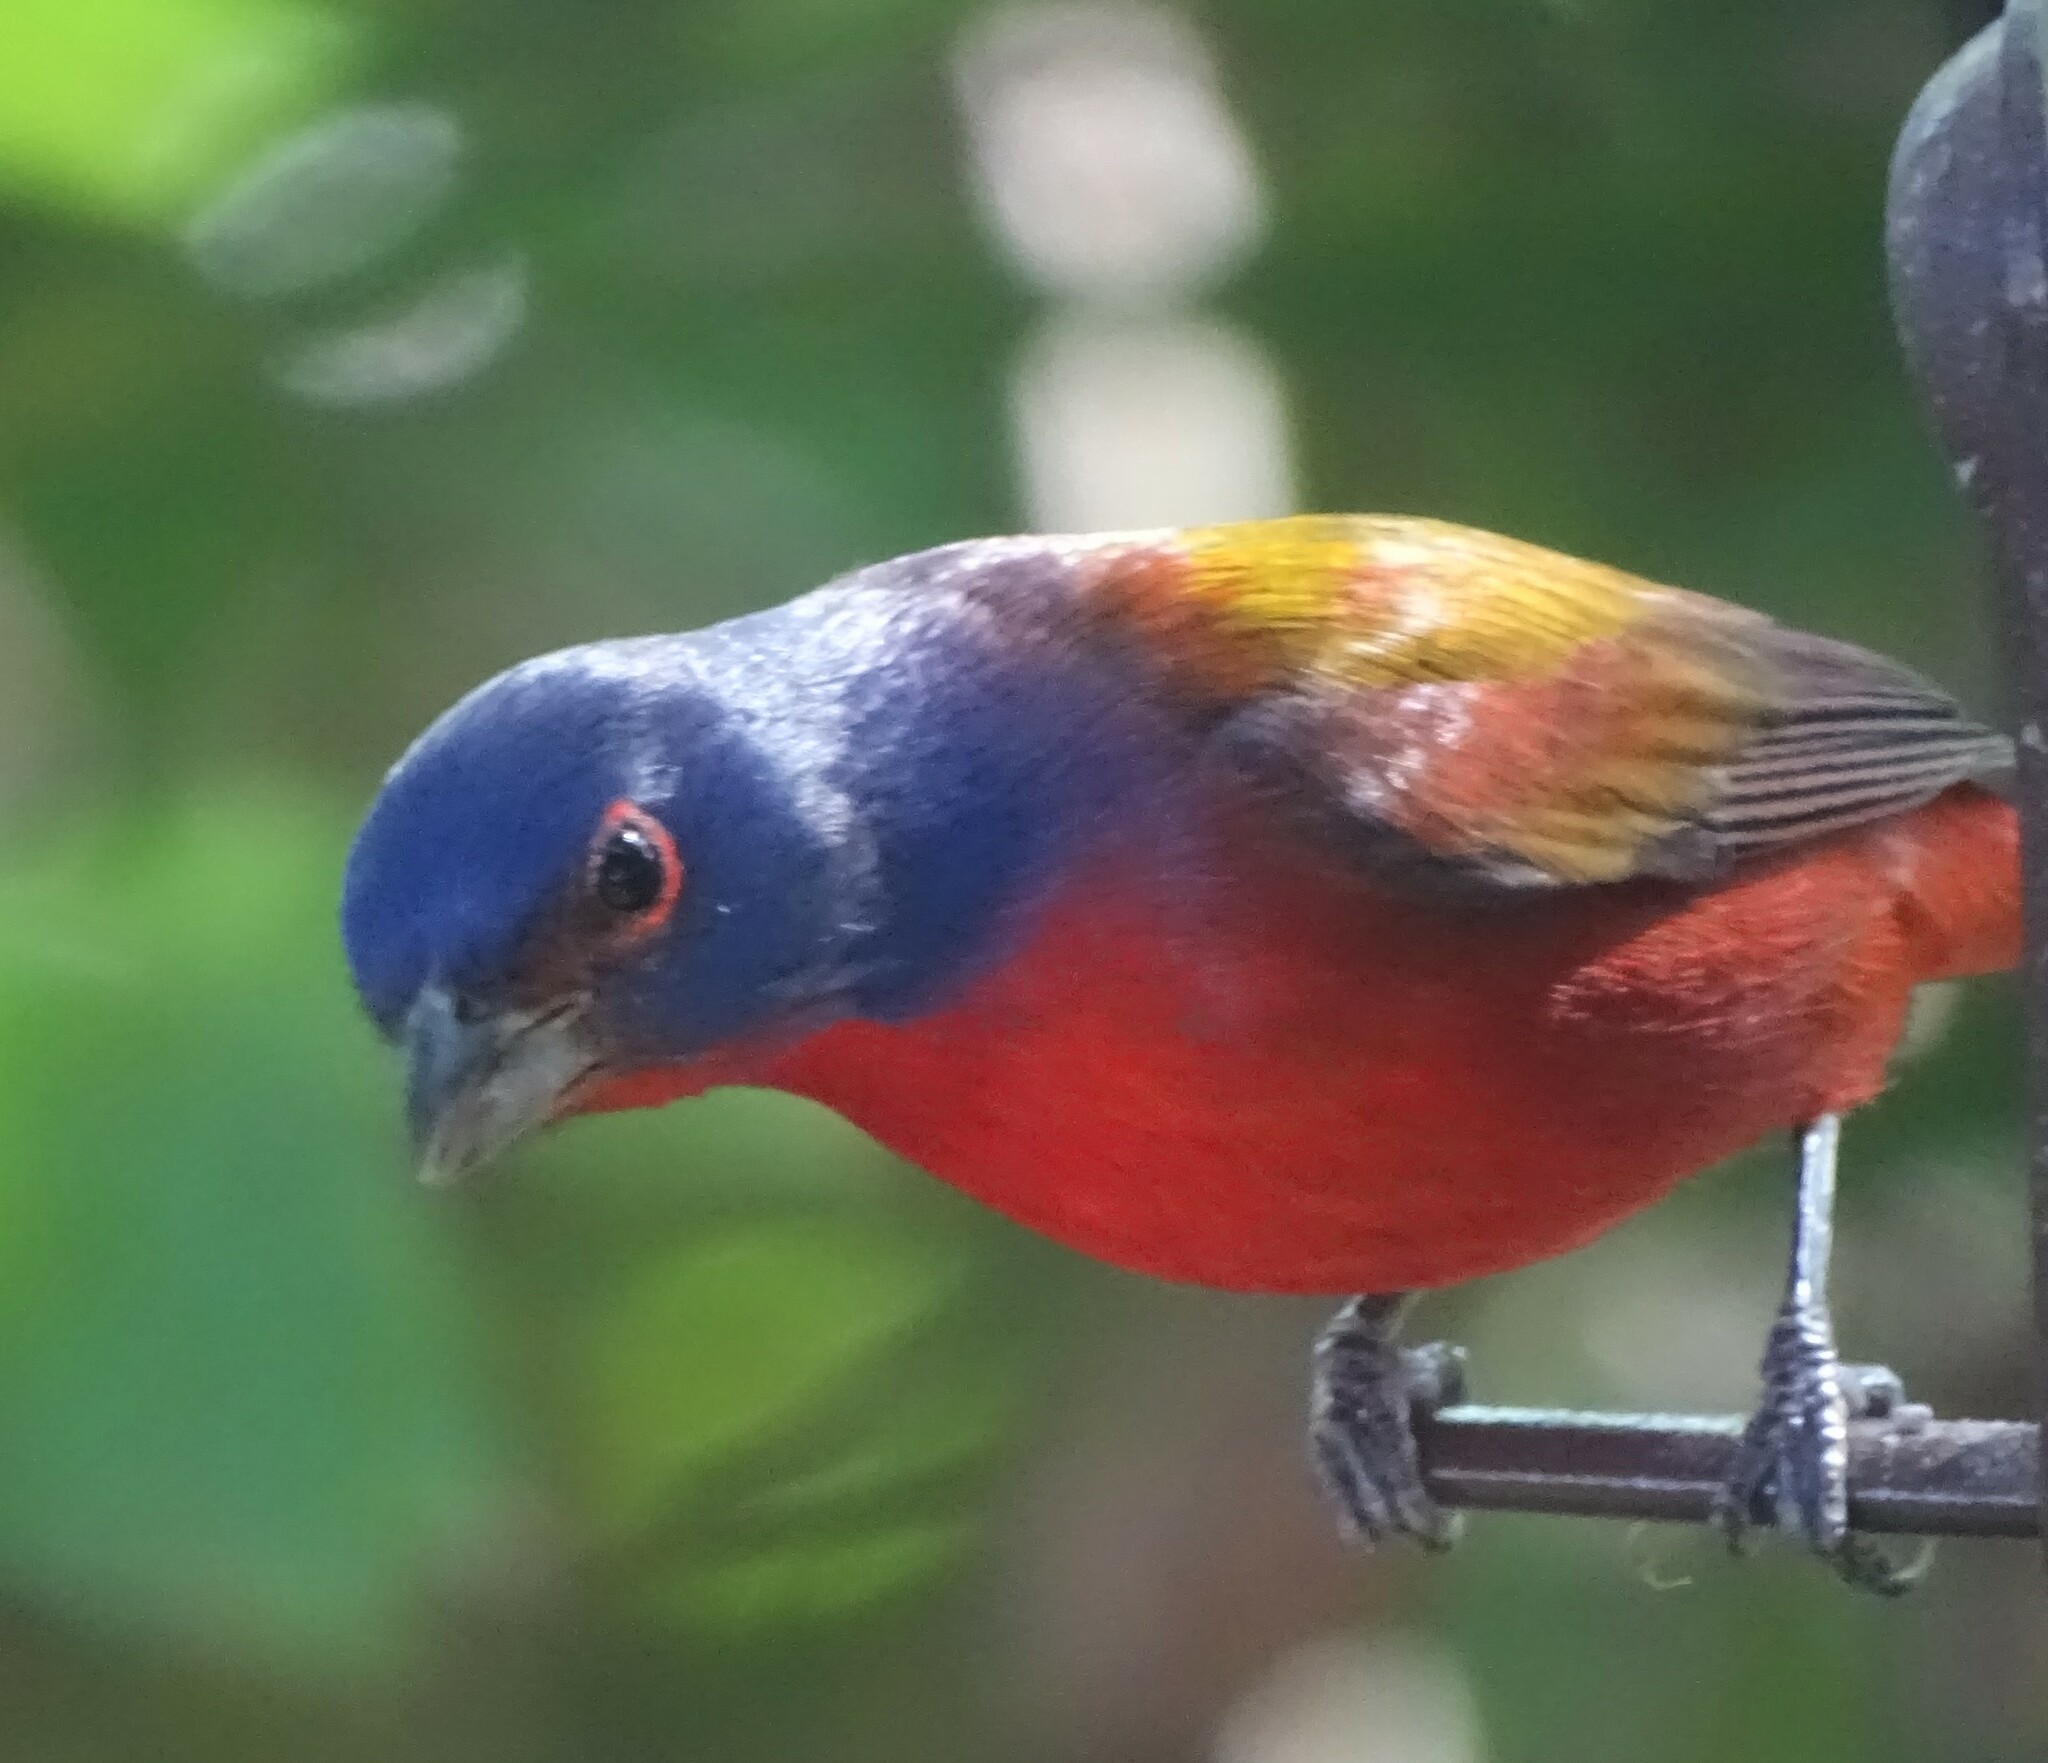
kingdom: Animalia
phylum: Chordata
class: Aves
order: Passeriformes
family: Cardinalidae
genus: Passerina
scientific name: Passerina ciris
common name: Painted bunting
